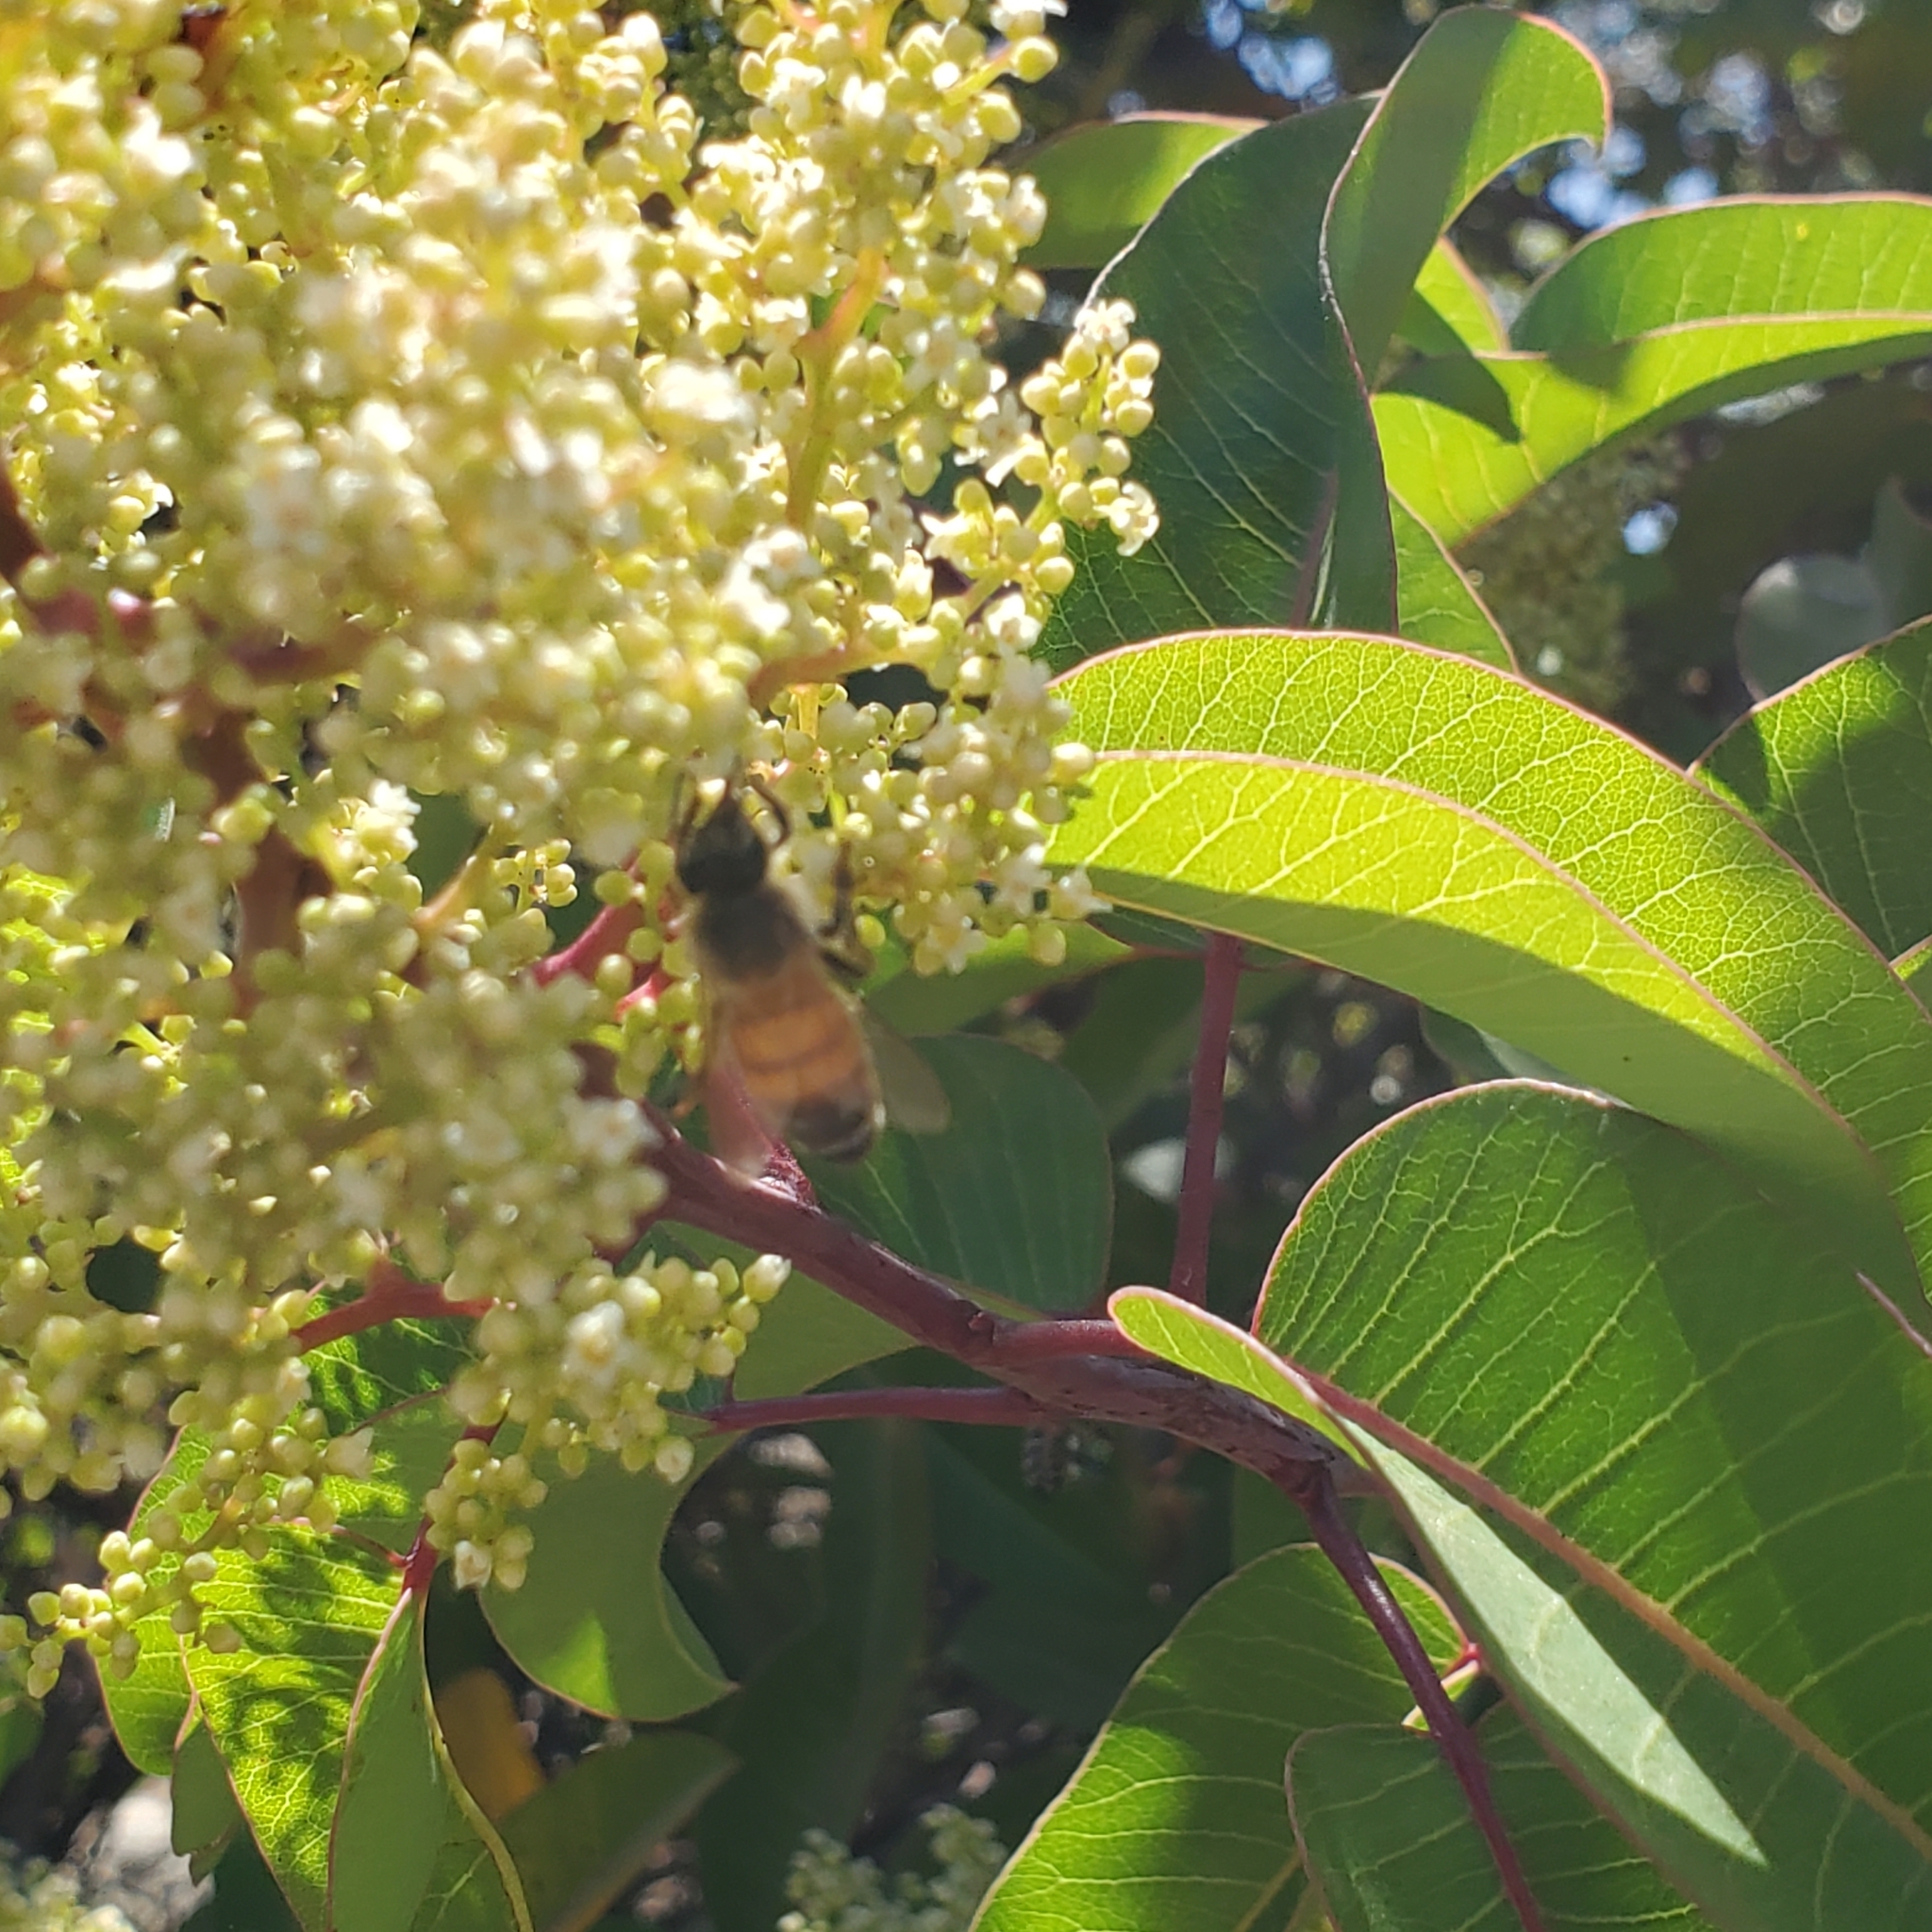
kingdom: Plantae
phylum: Tracheophyta
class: Magnoliopsida
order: Sapindales
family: Anacardiaceae
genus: Malosma
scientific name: Malosma laurina
